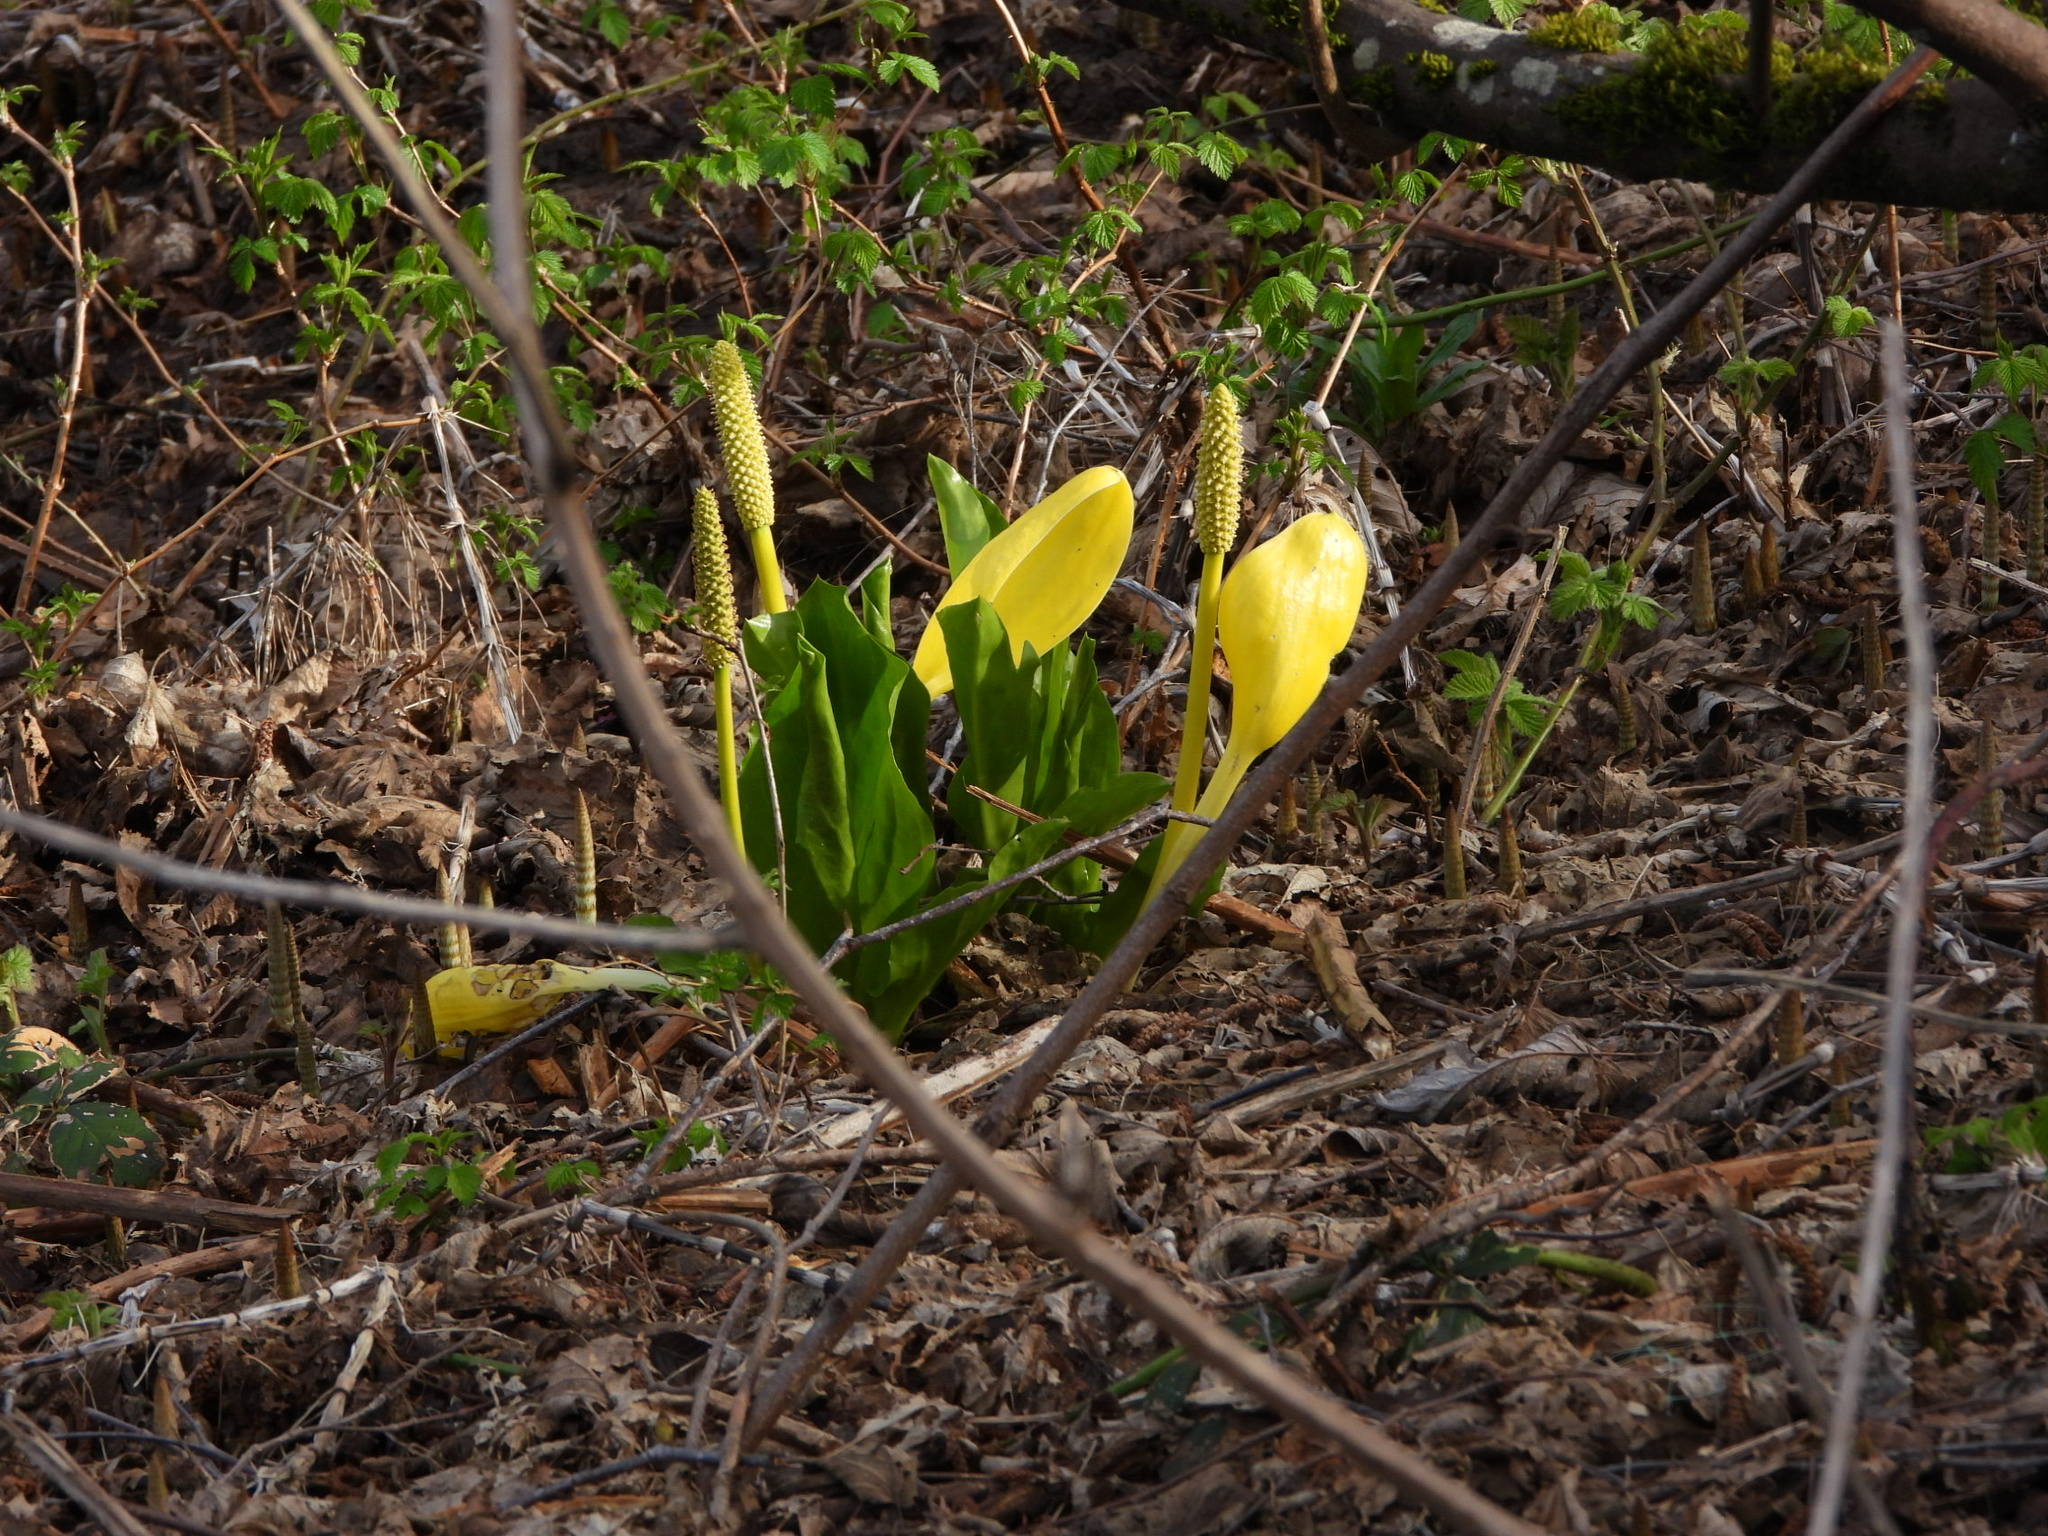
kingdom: Plantae
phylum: Tracheophyta
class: Liliopsida
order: Alismatales
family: Araceae
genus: Lysichiton
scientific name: Lysichiton americanus
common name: American skunk cabbage
